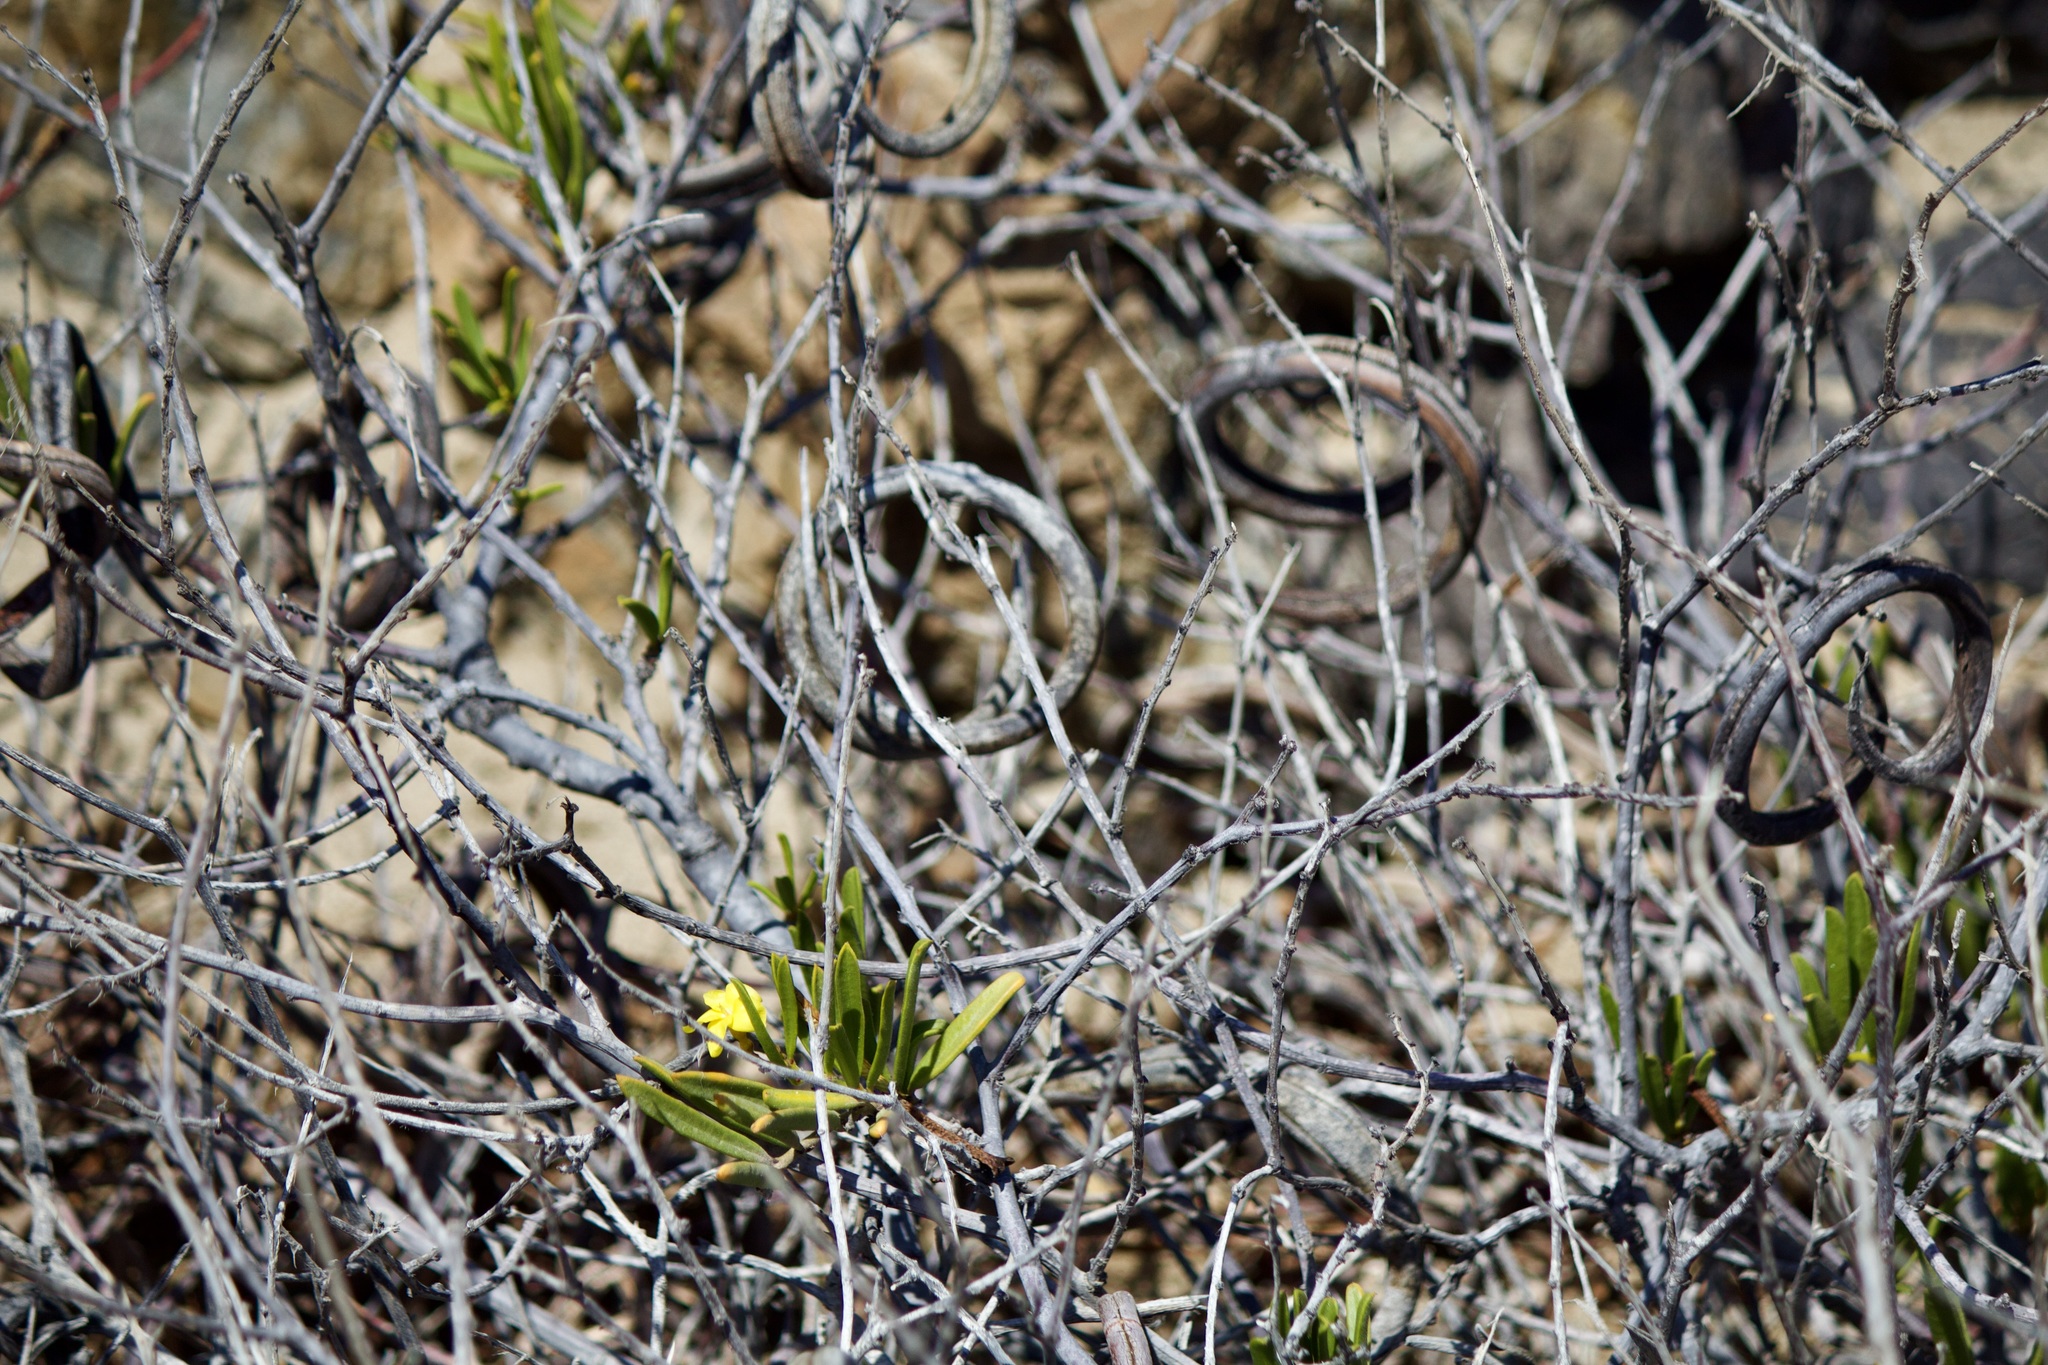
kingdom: Plantae
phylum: Tracheophyta
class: Magnoliopsida
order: Gentianales
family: Apocynaceae
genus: Skytanthus
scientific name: Skytanthus acutus
